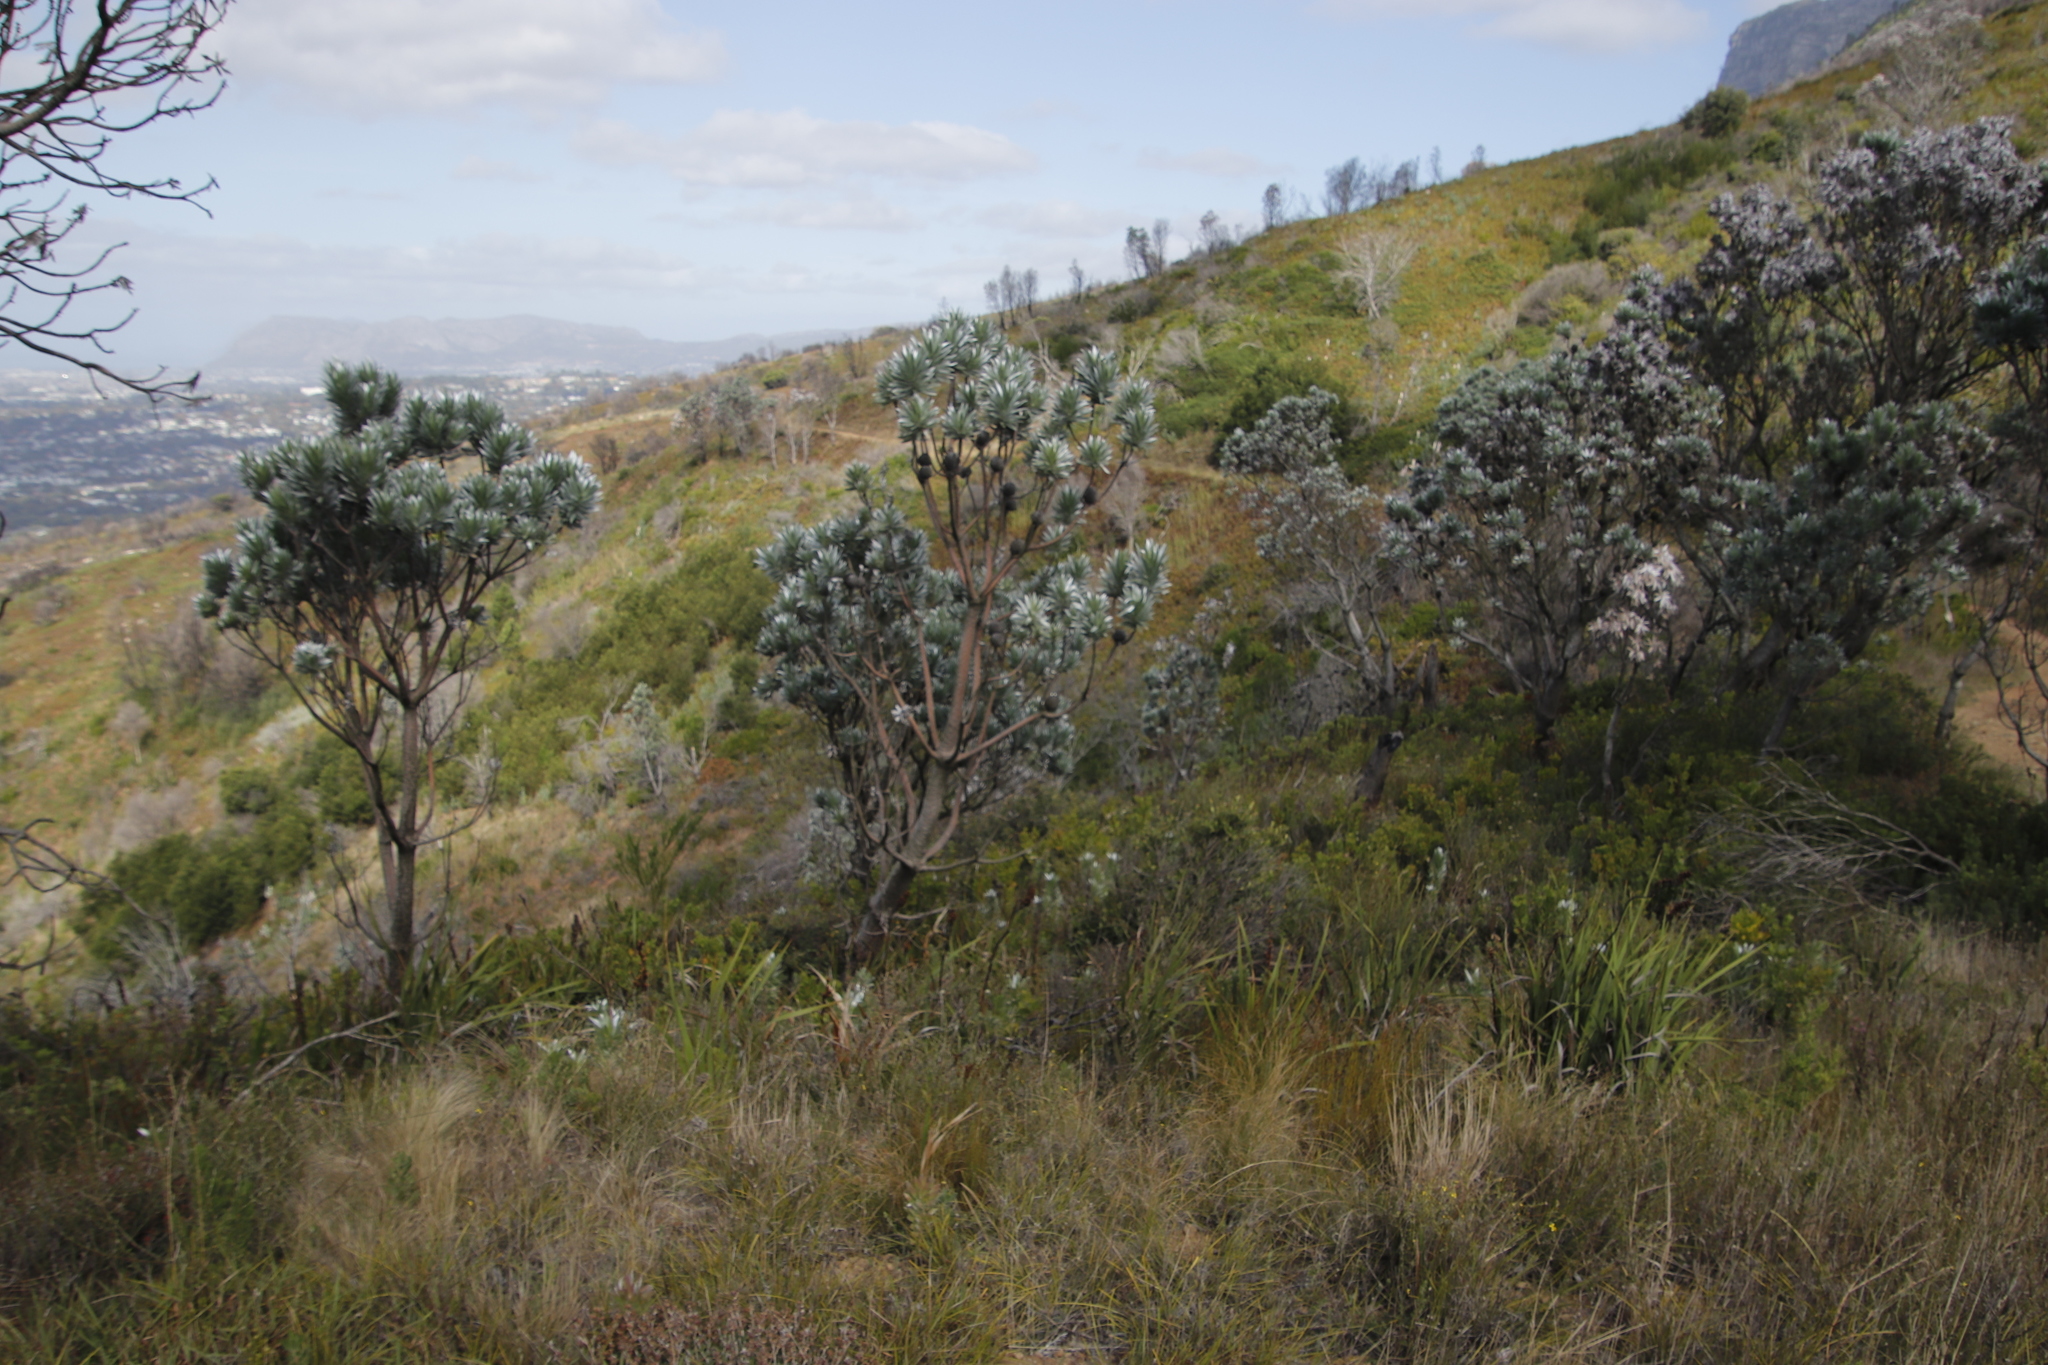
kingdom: Plantae
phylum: Tracheophyta
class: Magnoliopsida
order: Proteales
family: Proteaceae
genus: Leucadendron
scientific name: Leucadendron argenteum
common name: Cape silver tree
